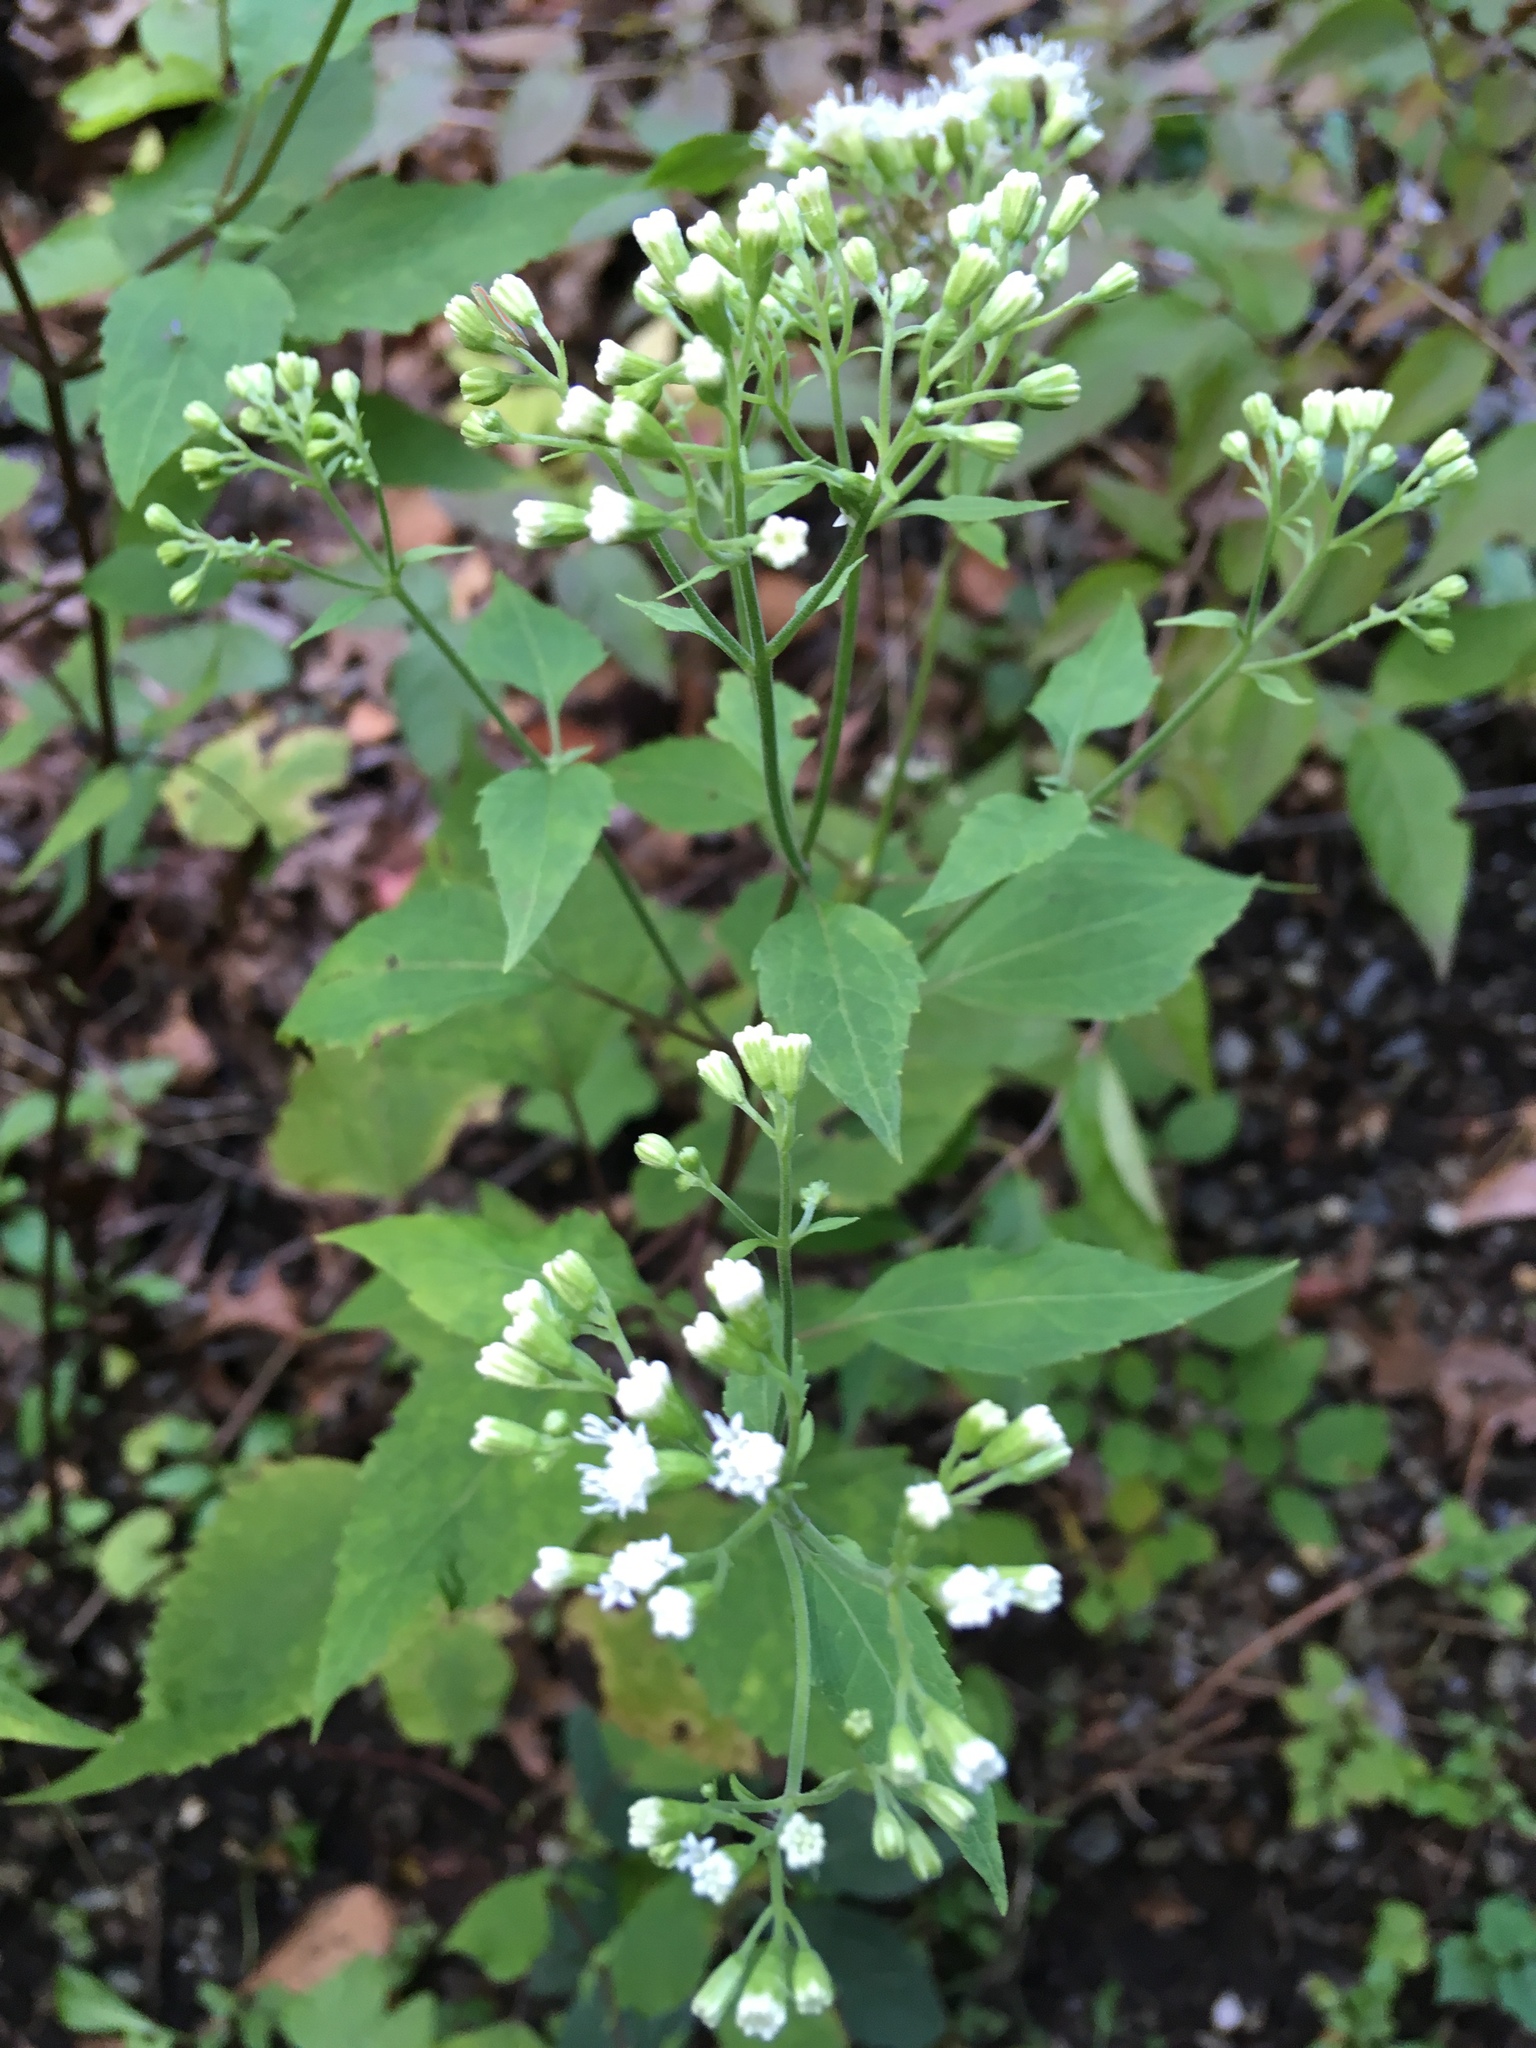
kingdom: Plantae
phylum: Tracheophyta
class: Magnoliopsida
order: Asterales
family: Asteraceae
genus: Ageratina
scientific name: Ageratina altissima
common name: White snakeroot
